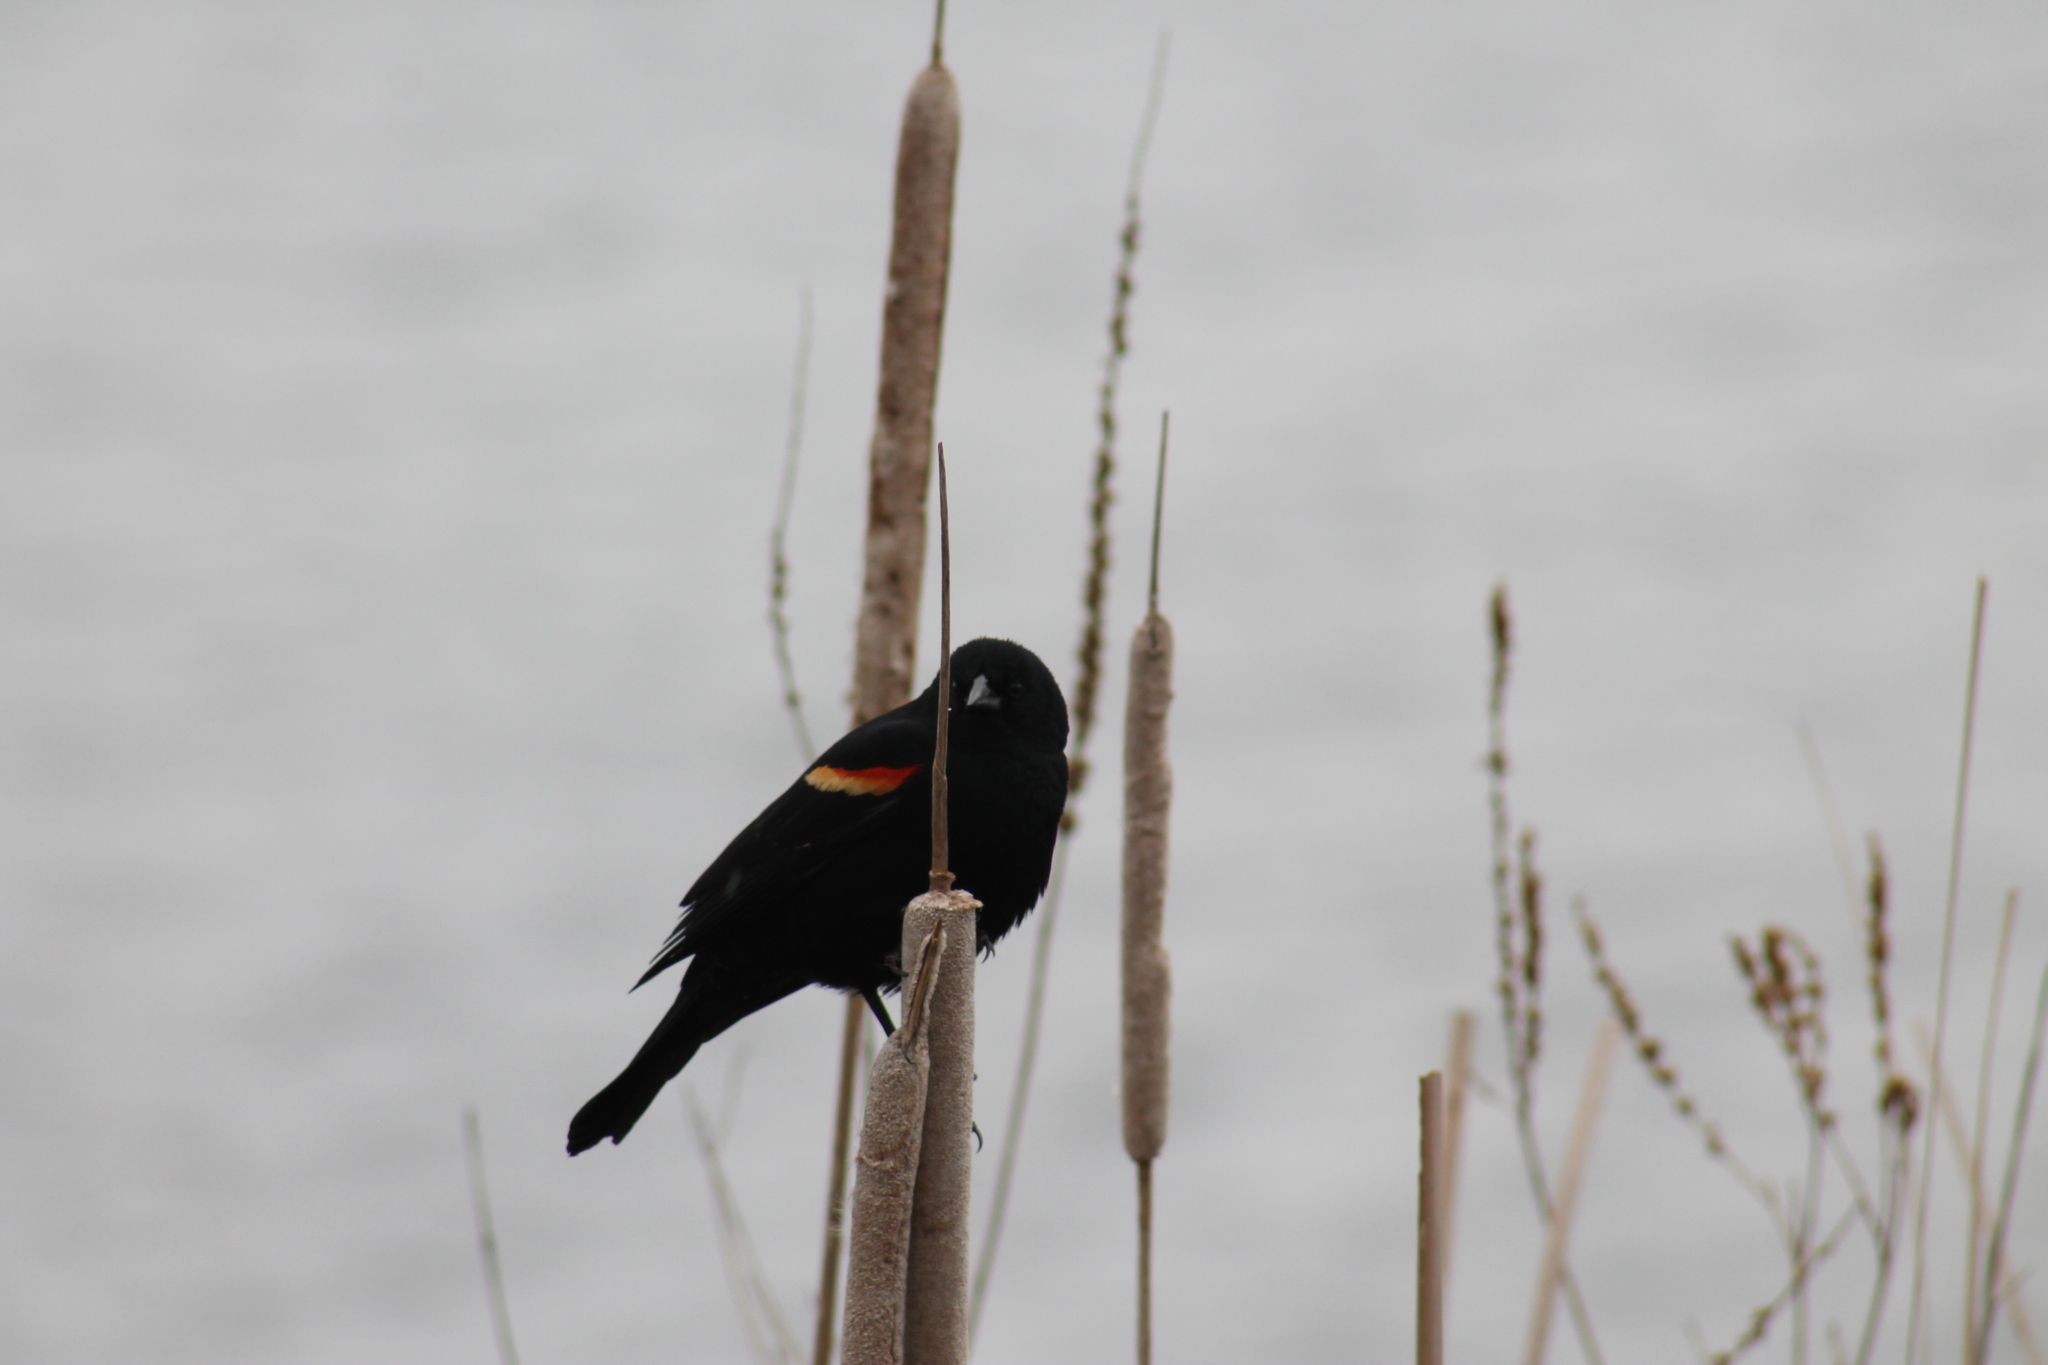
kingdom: Animalia
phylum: Chordata
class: Aves
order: Passeriformes
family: Icteridae
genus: Agelaius
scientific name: Agelaius phoeniceus
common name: Red-winged blackbird
